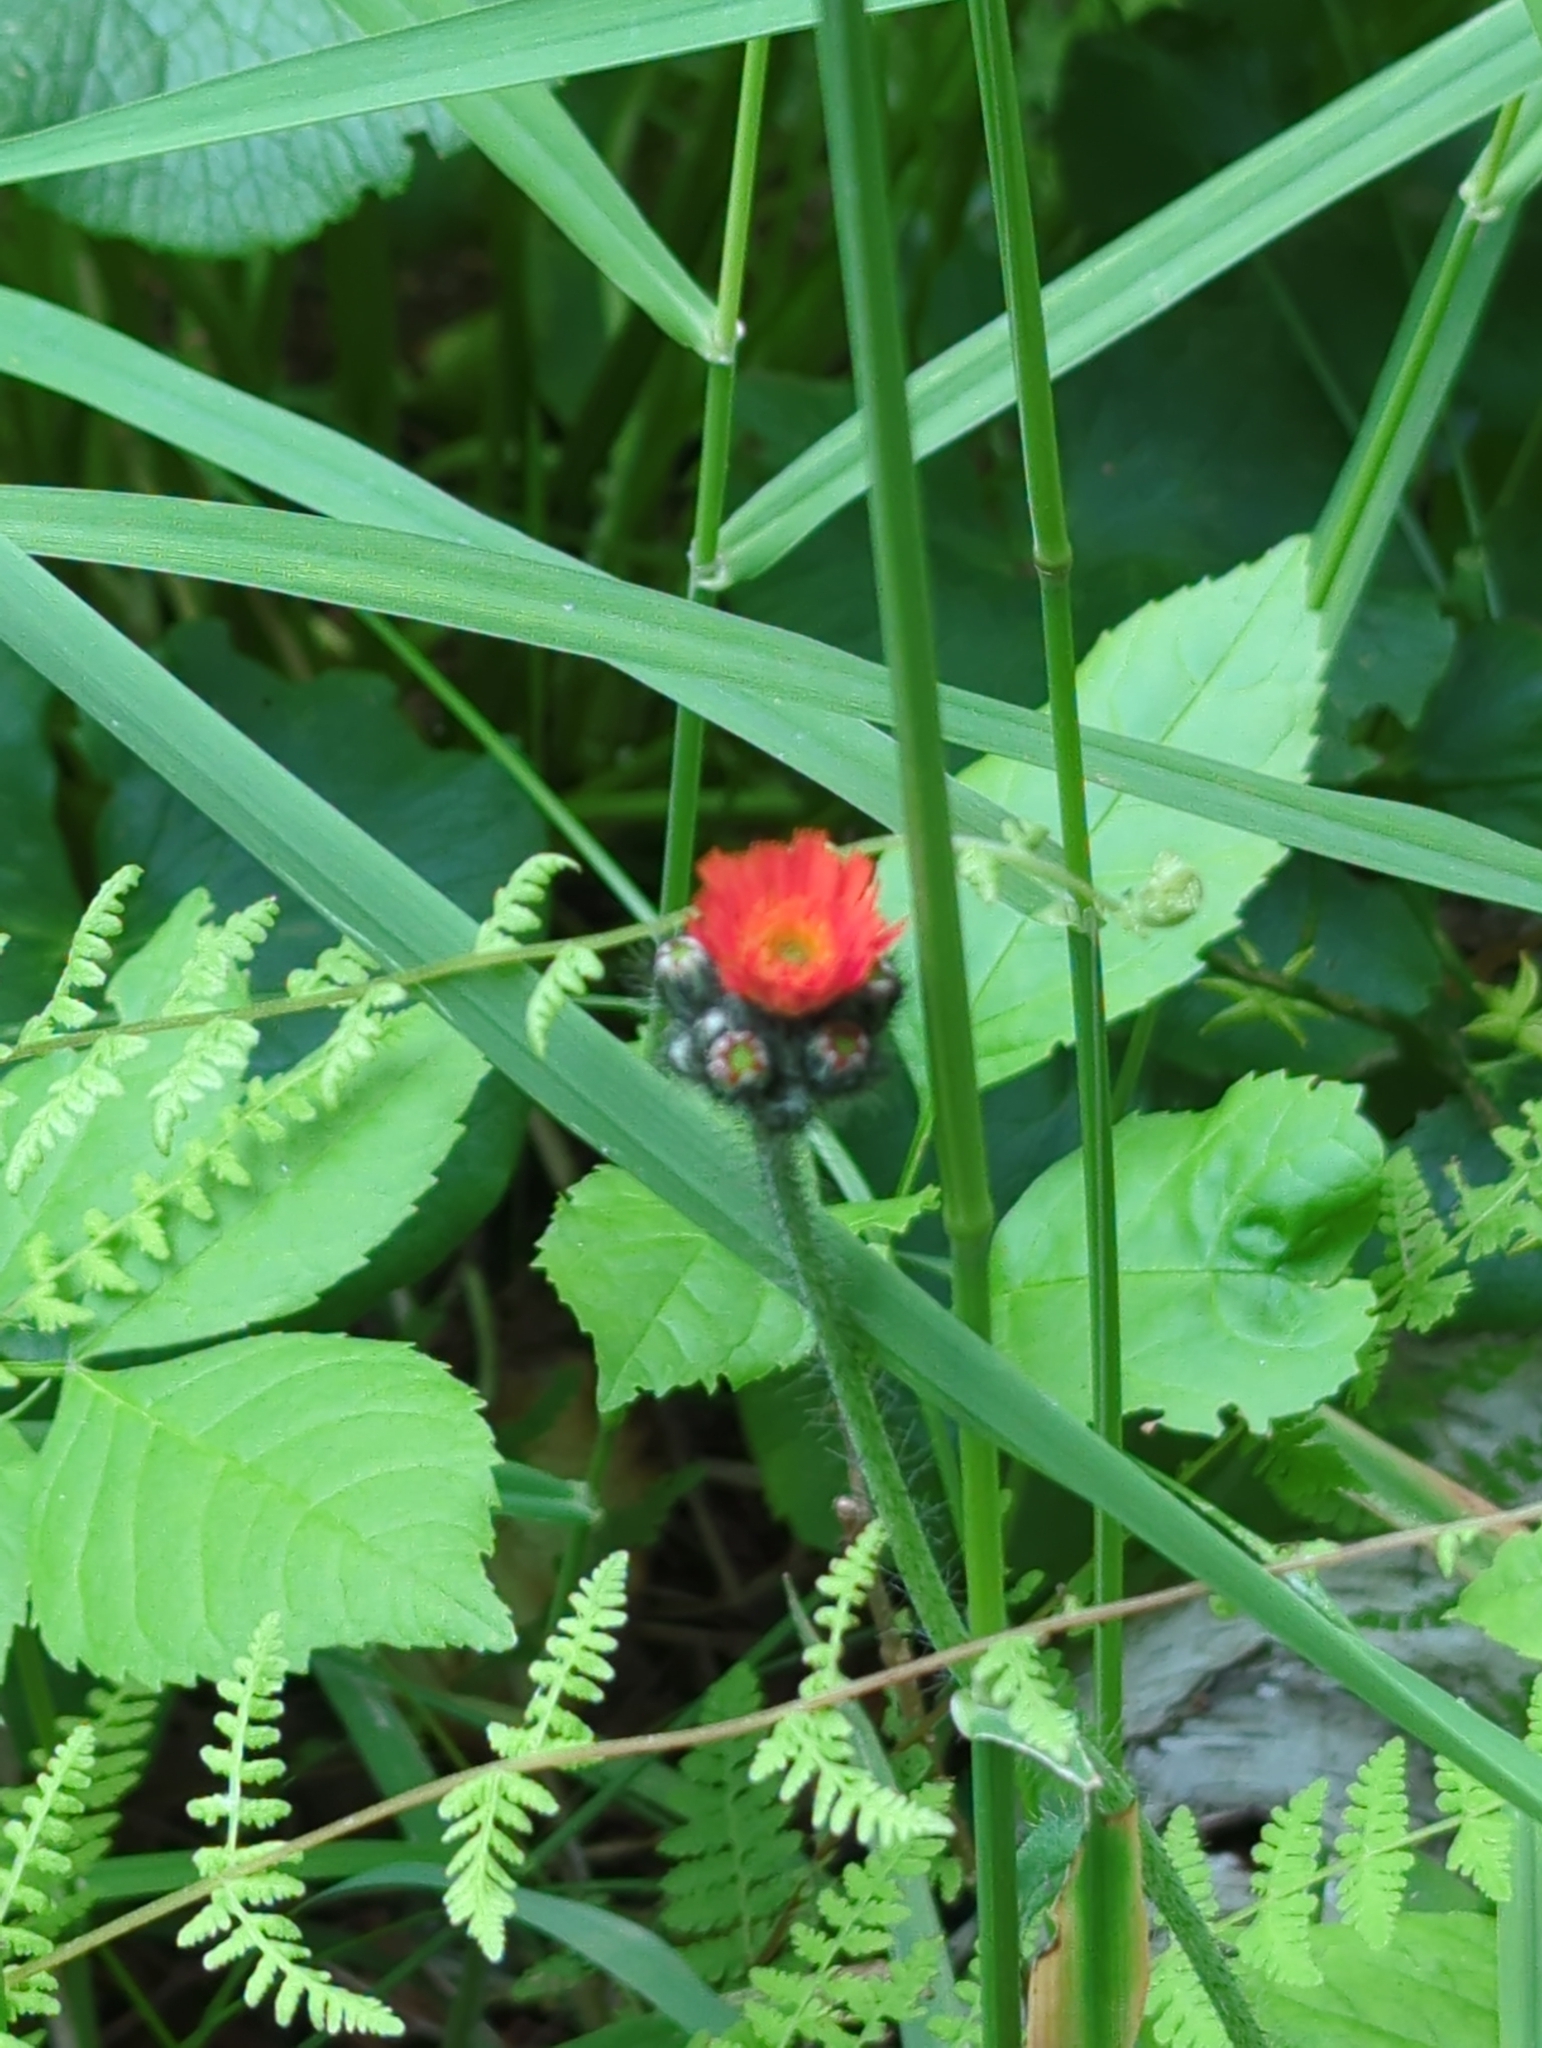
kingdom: Plantae
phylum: Tracheophyta
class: Magnoliopsida
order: Asterales
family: Asteraceae
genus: Pilosella
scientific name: Pilosella aurantiaca
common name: Fox-and-cubs
